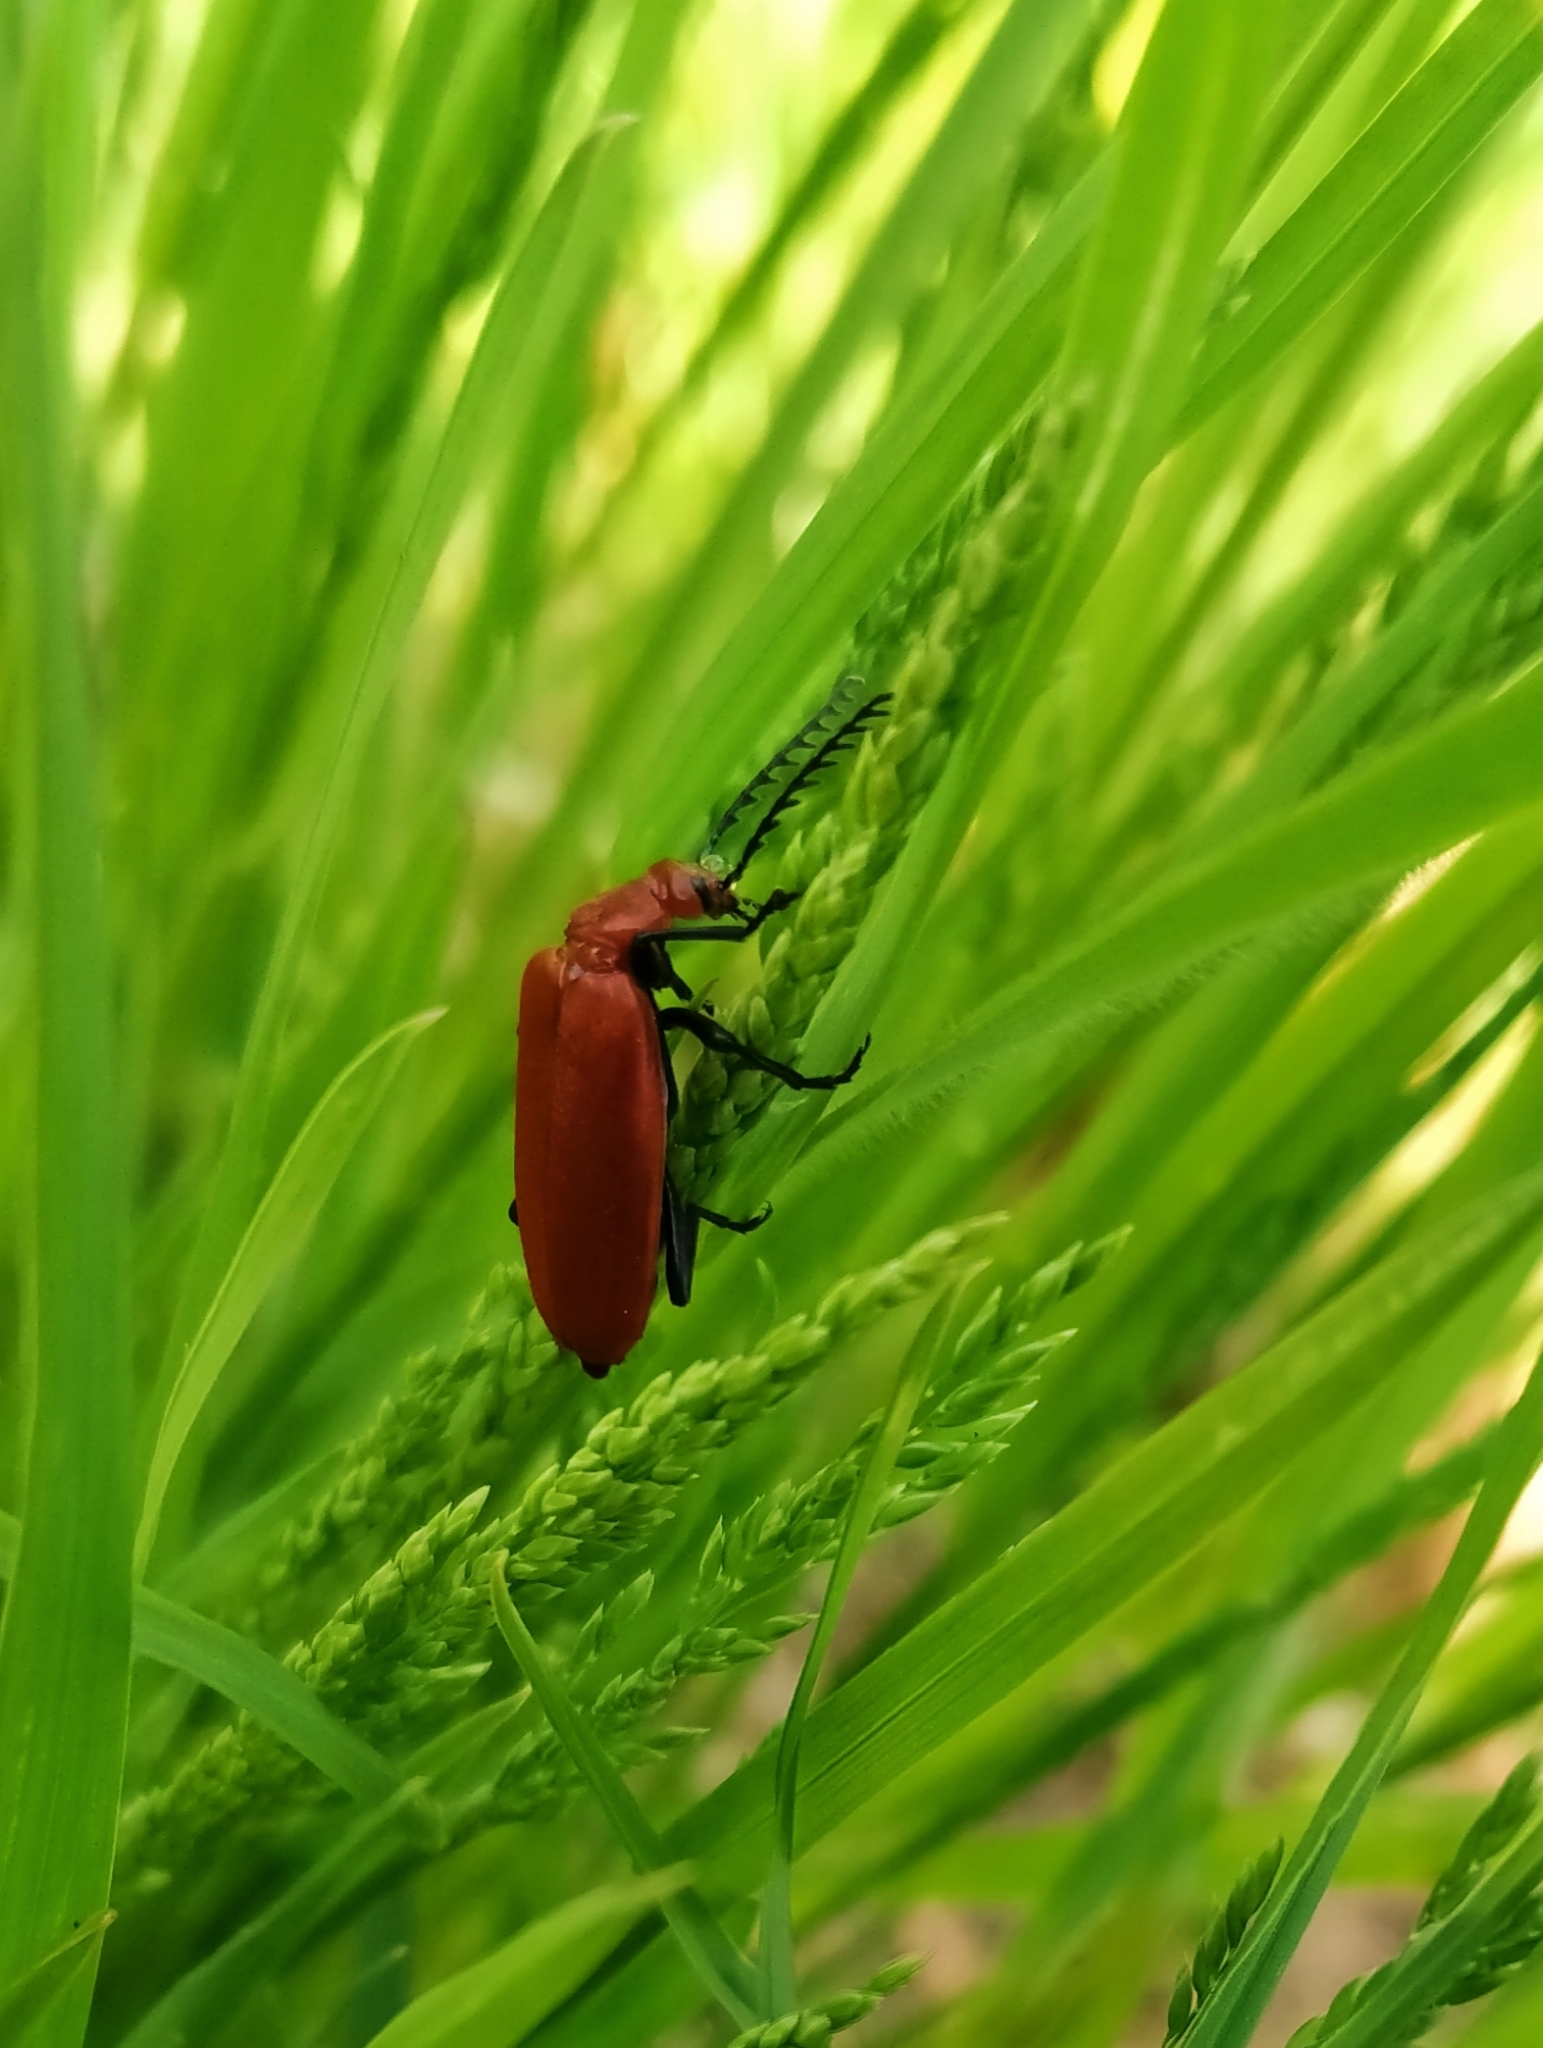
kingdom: Animalia
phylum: Arthropoda
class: Insecta
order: Coleoptera
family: Pyrochroidae
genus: Pyrochroa
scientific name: Pyrochroa serraticornis
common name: Red-headed cardinal beetle
